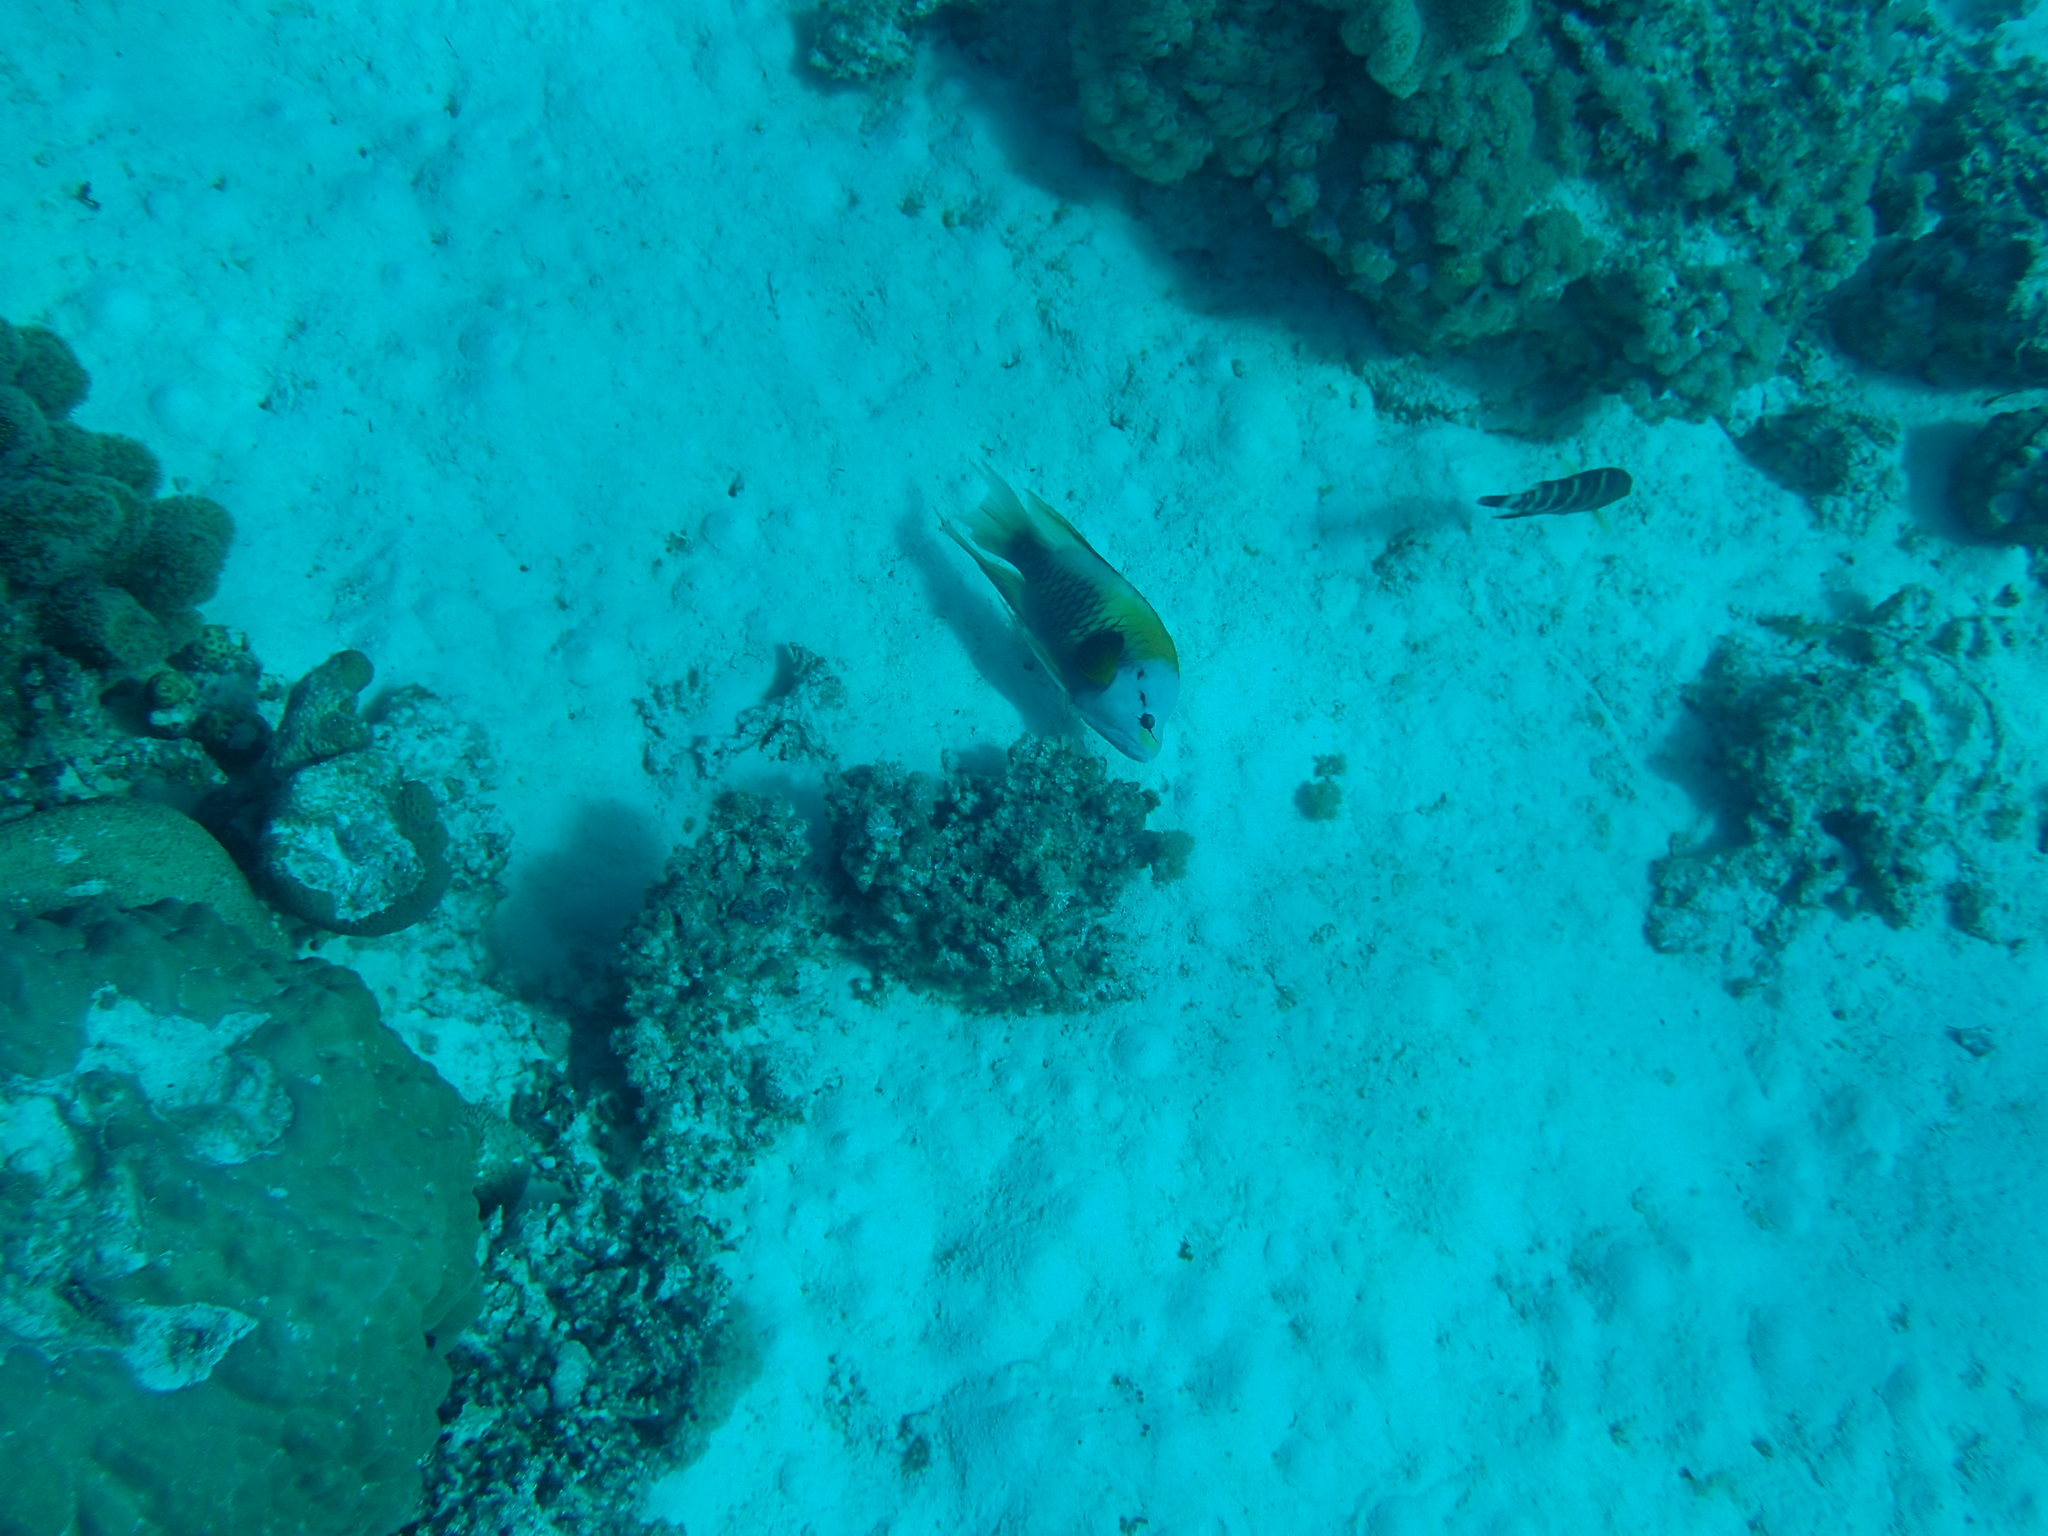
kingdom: Animalia
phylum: Chordata
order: Perciformes
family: Labridae
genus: Epibulus
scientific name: Epibulus insidiator
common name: Slingjaw wrasse
